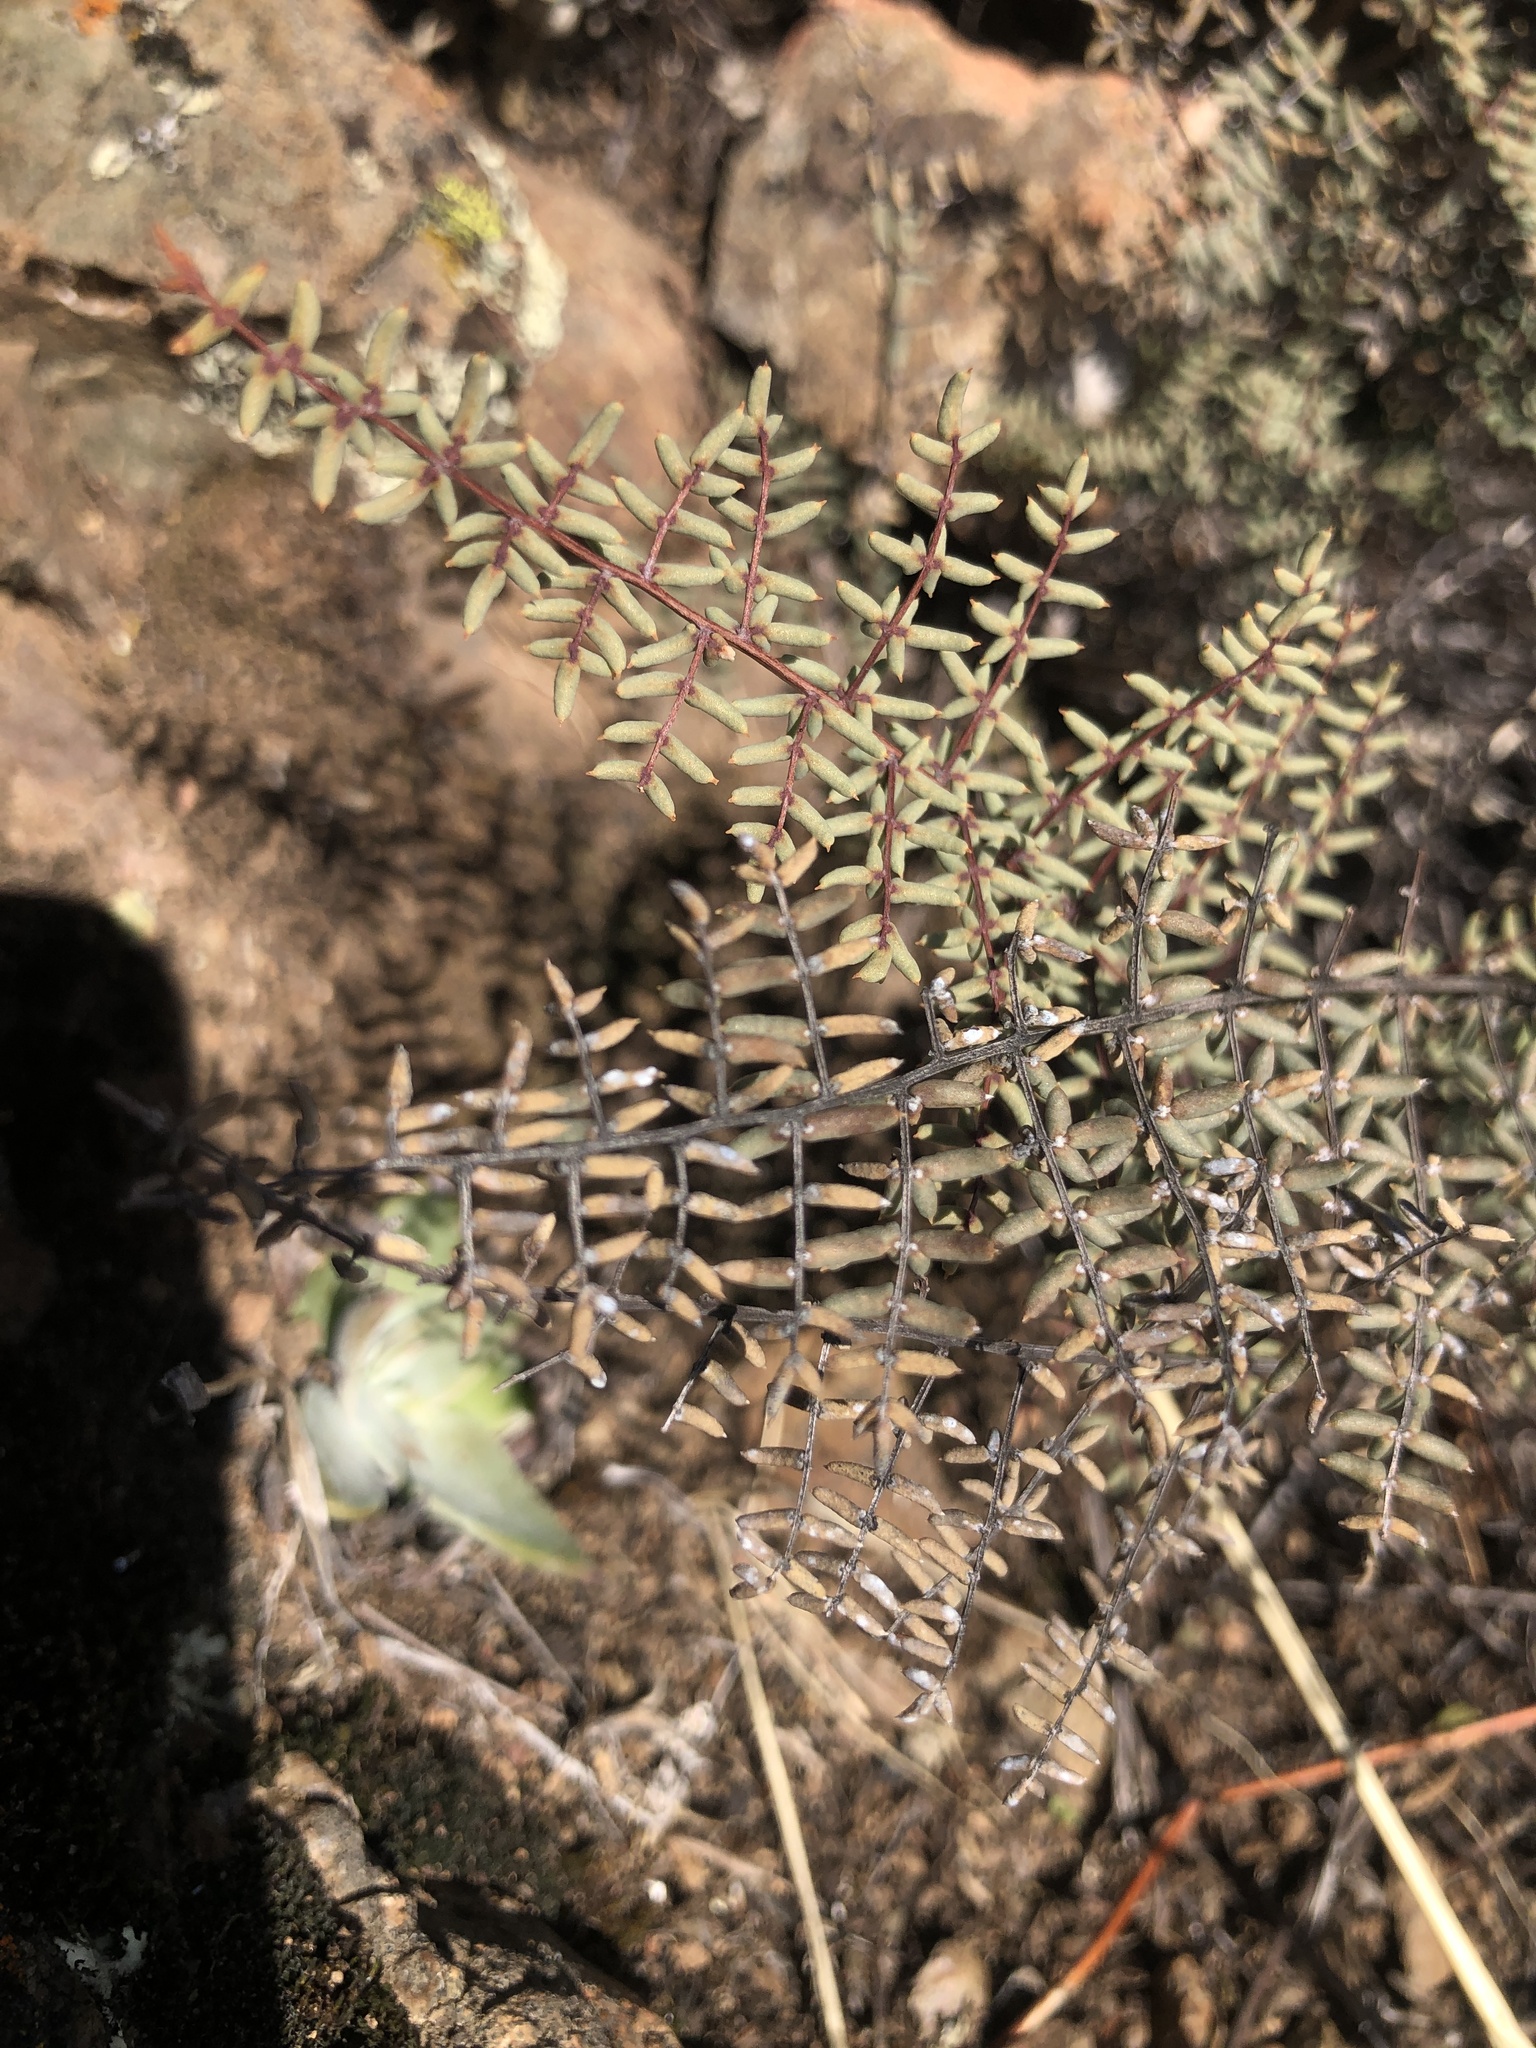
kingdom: Plantae
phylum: Tracheophyta
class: Polypodiopsida
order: Polypodiales
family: Pteridaceae
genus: Pellaea
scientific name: Pellaea mucronata
